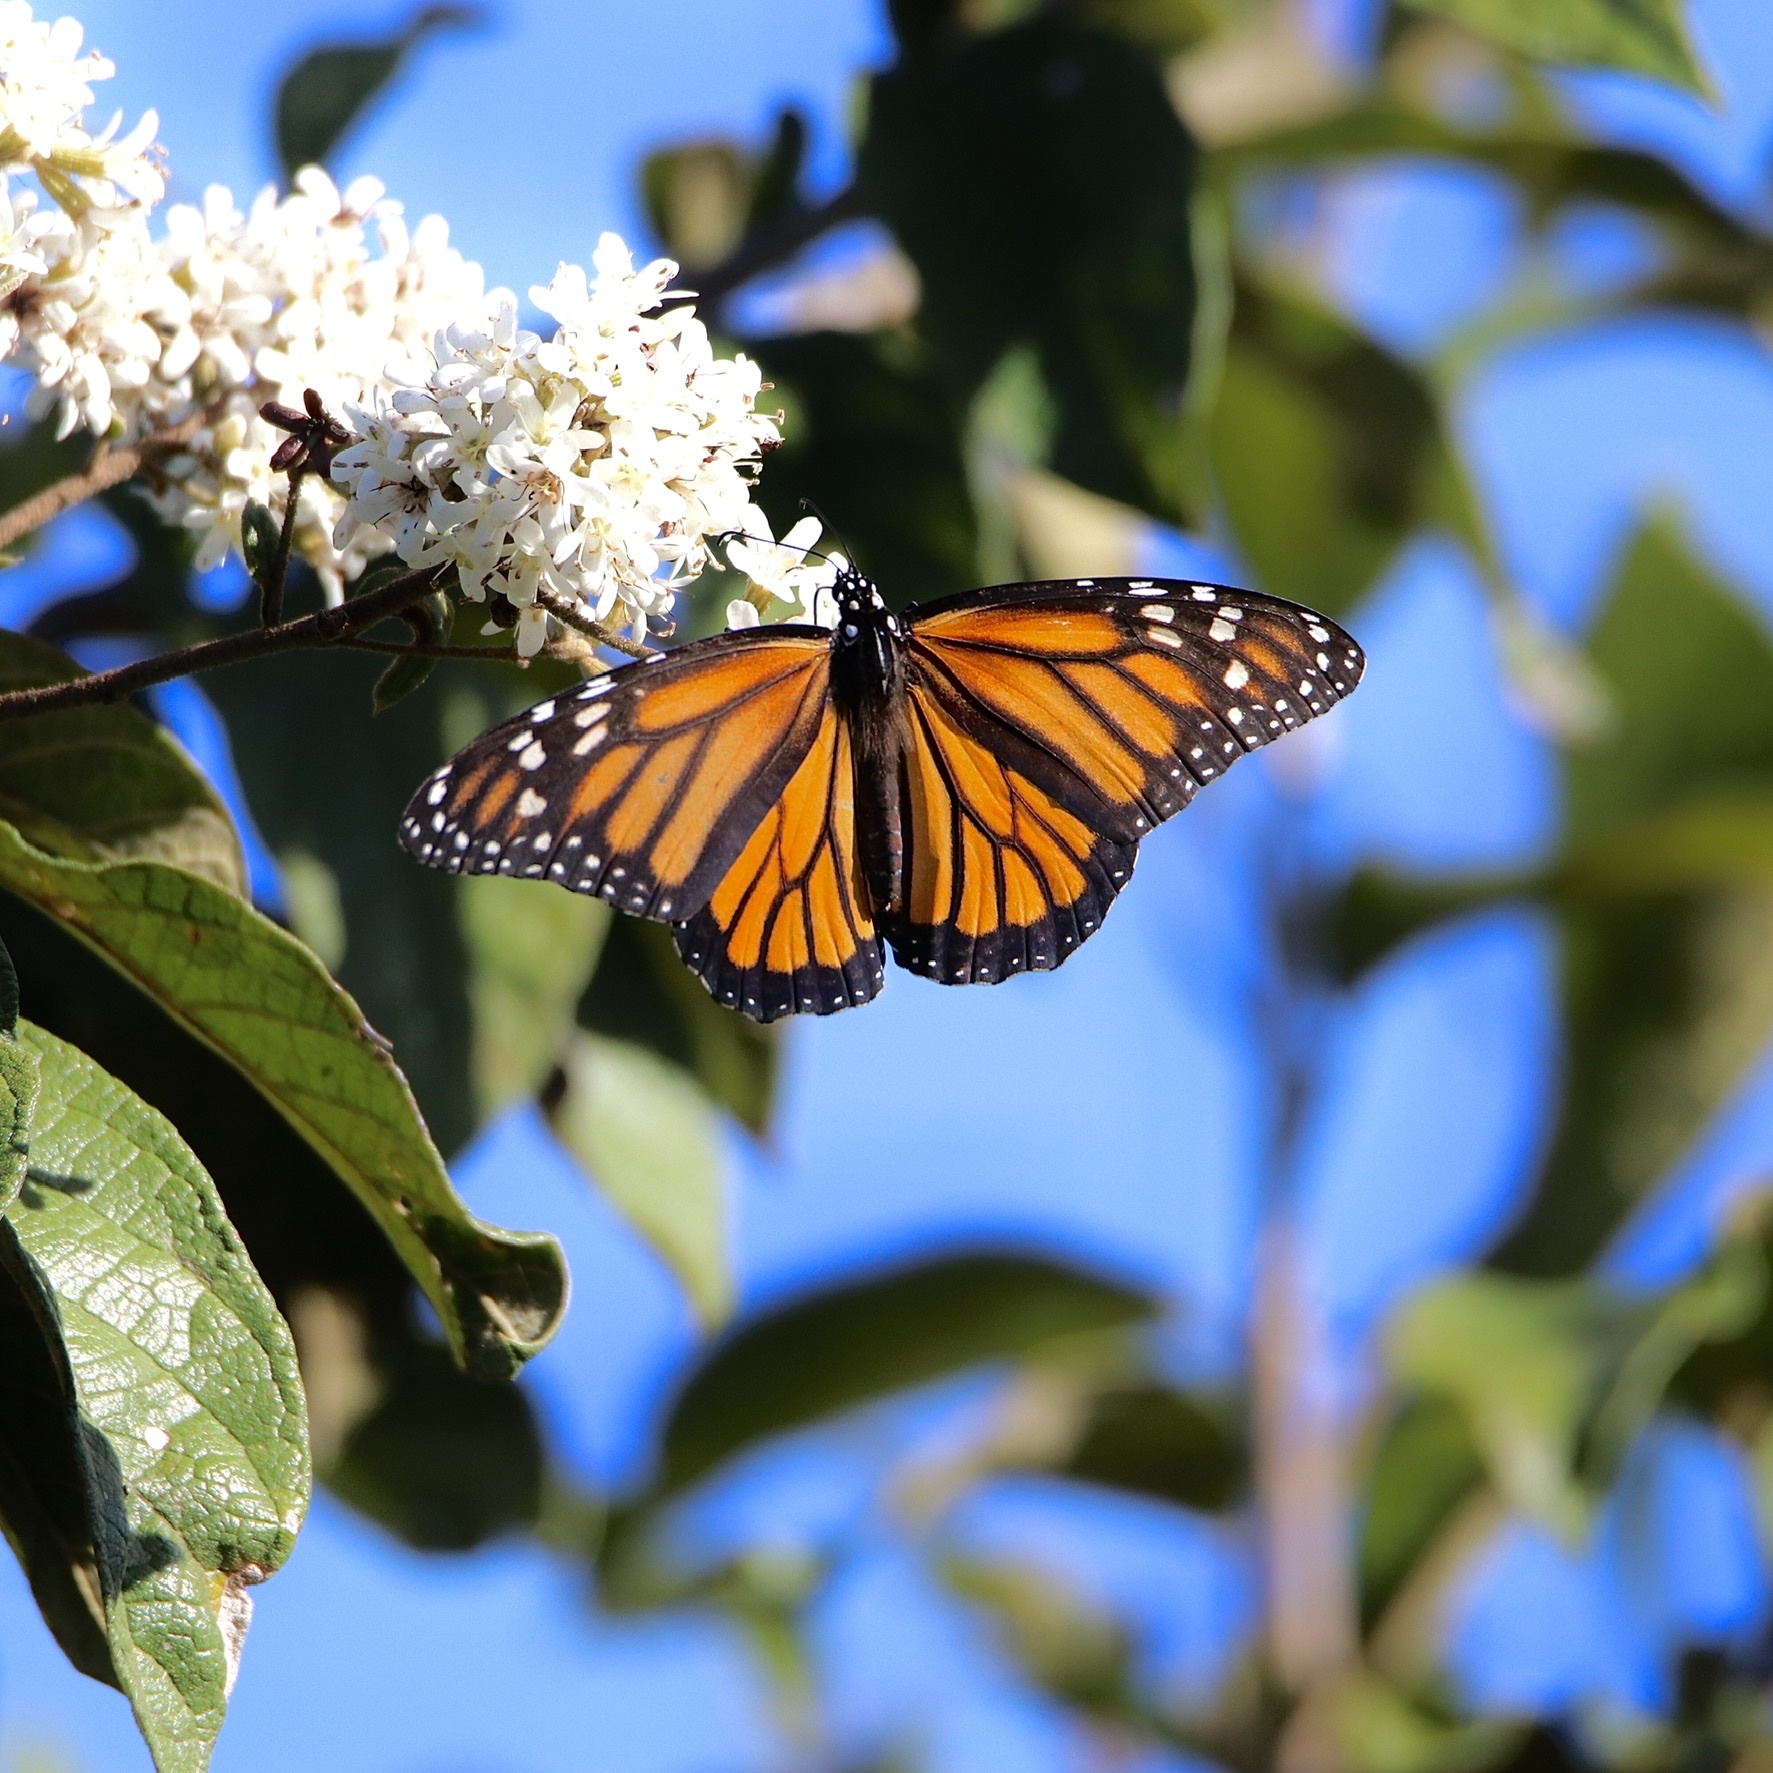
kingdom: Animalia
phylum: Arthropoda
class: Insecta
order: Lepidoptera
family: Nymphalidae
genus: Danaus
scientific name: Danaus plexippus
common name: Monarch
